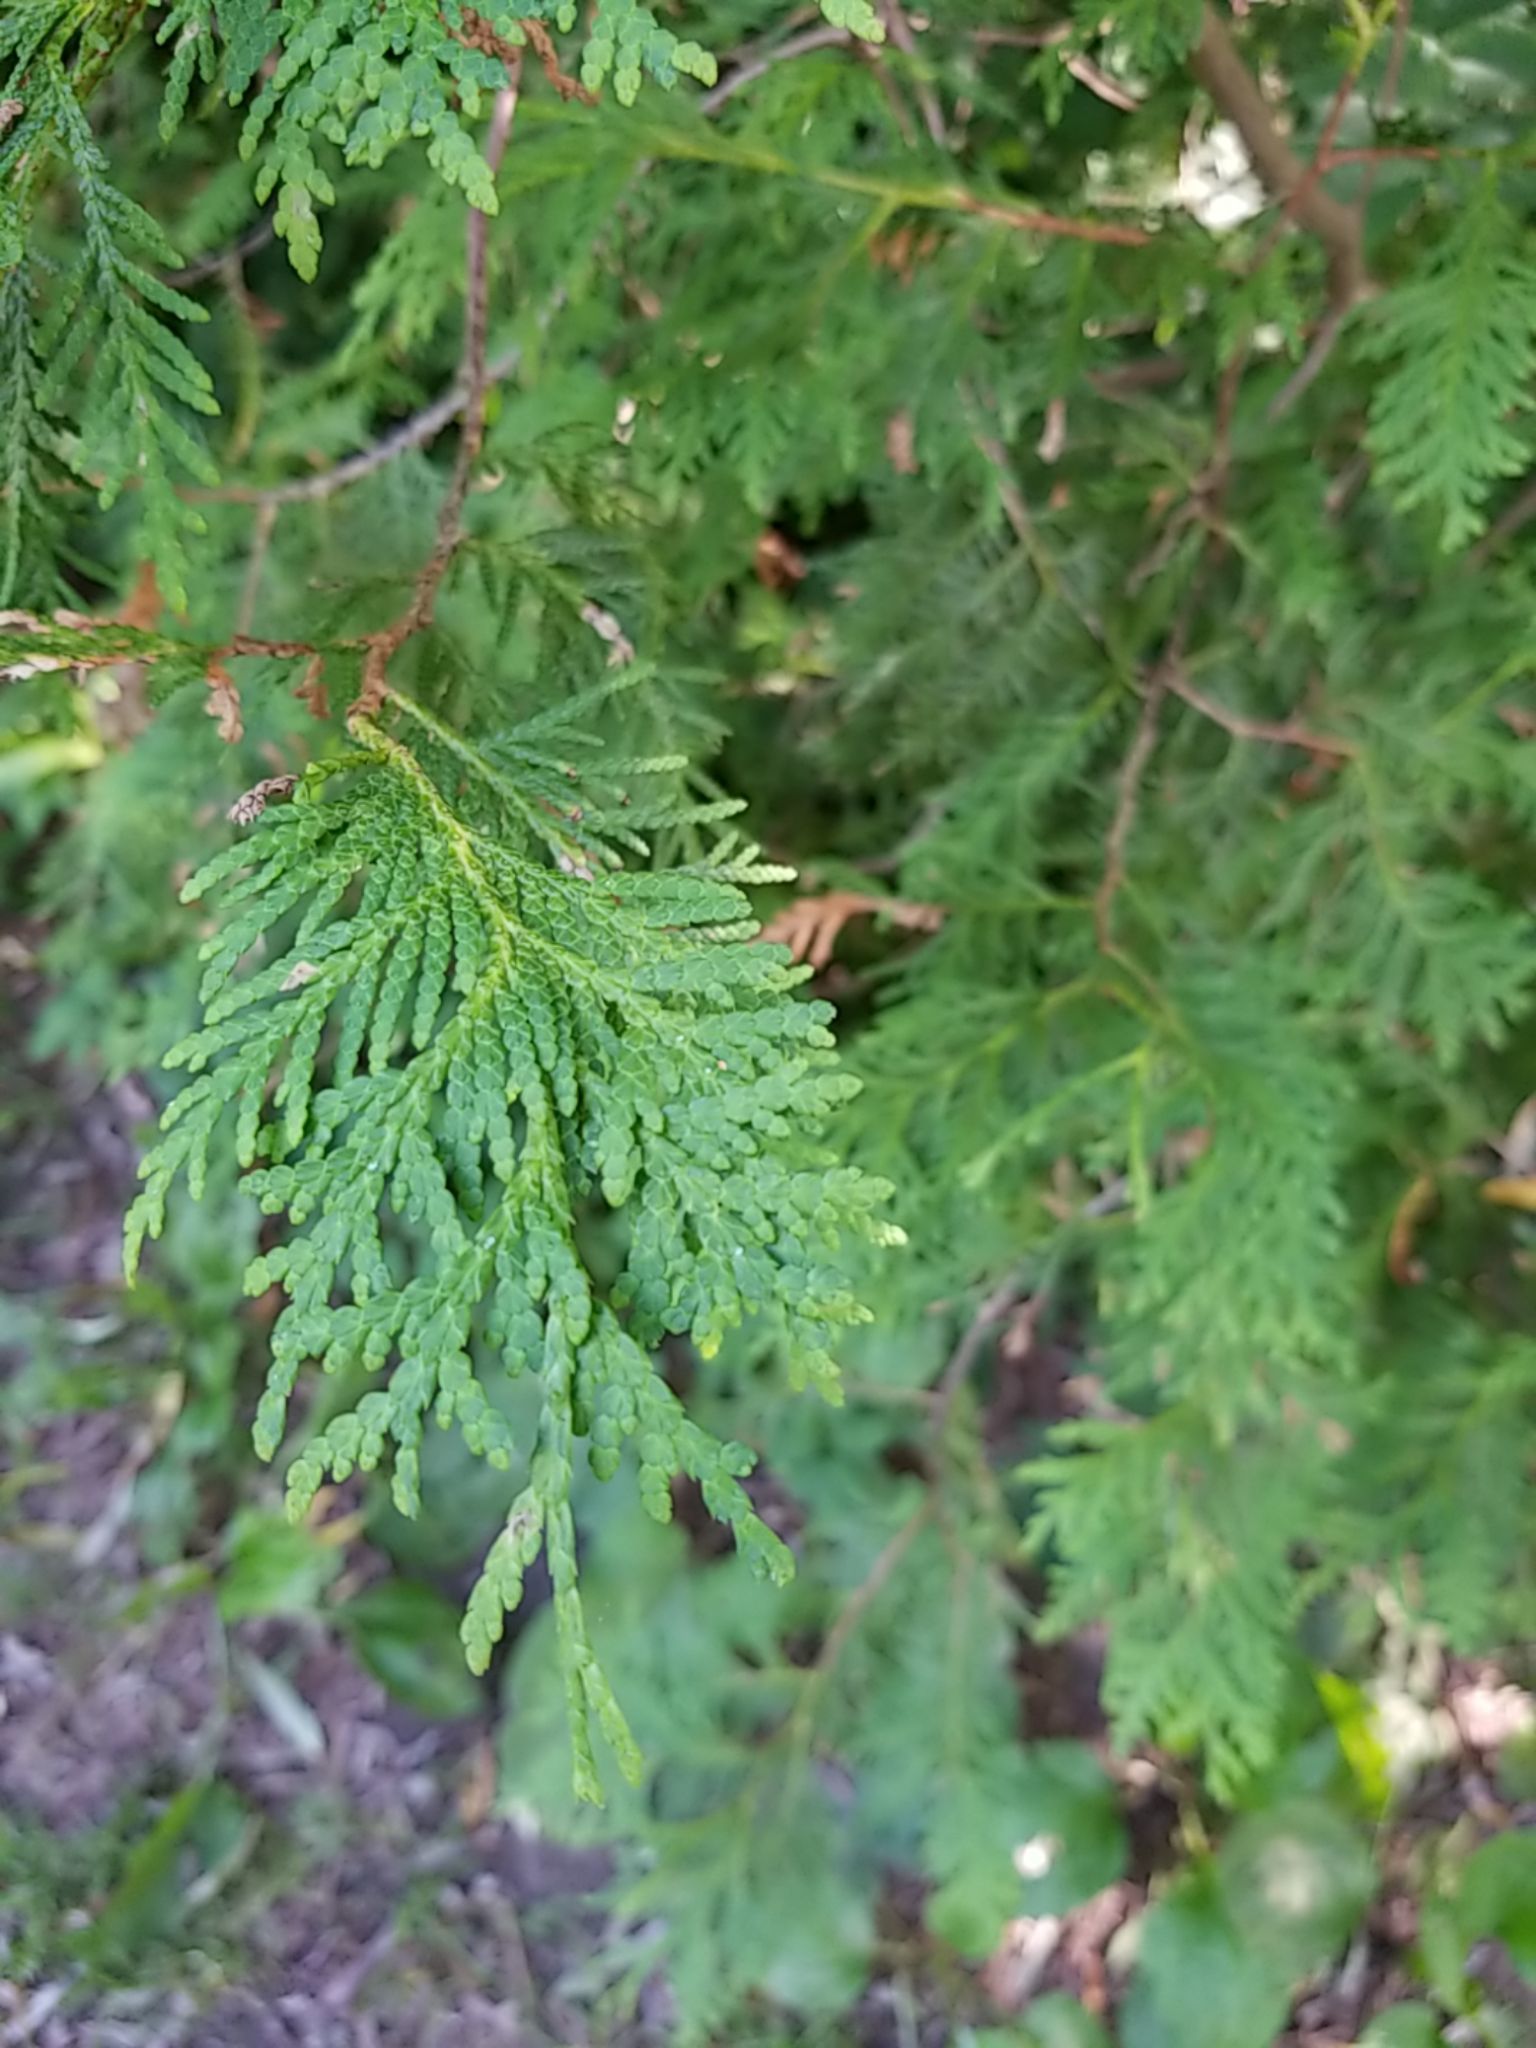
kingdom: Plantae
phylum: Tracheophyta
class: Pinopsida
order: Pinales
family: Cupressaceae
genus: Thuja
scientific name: Thuja occidentalis
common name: Northern white-cedar
